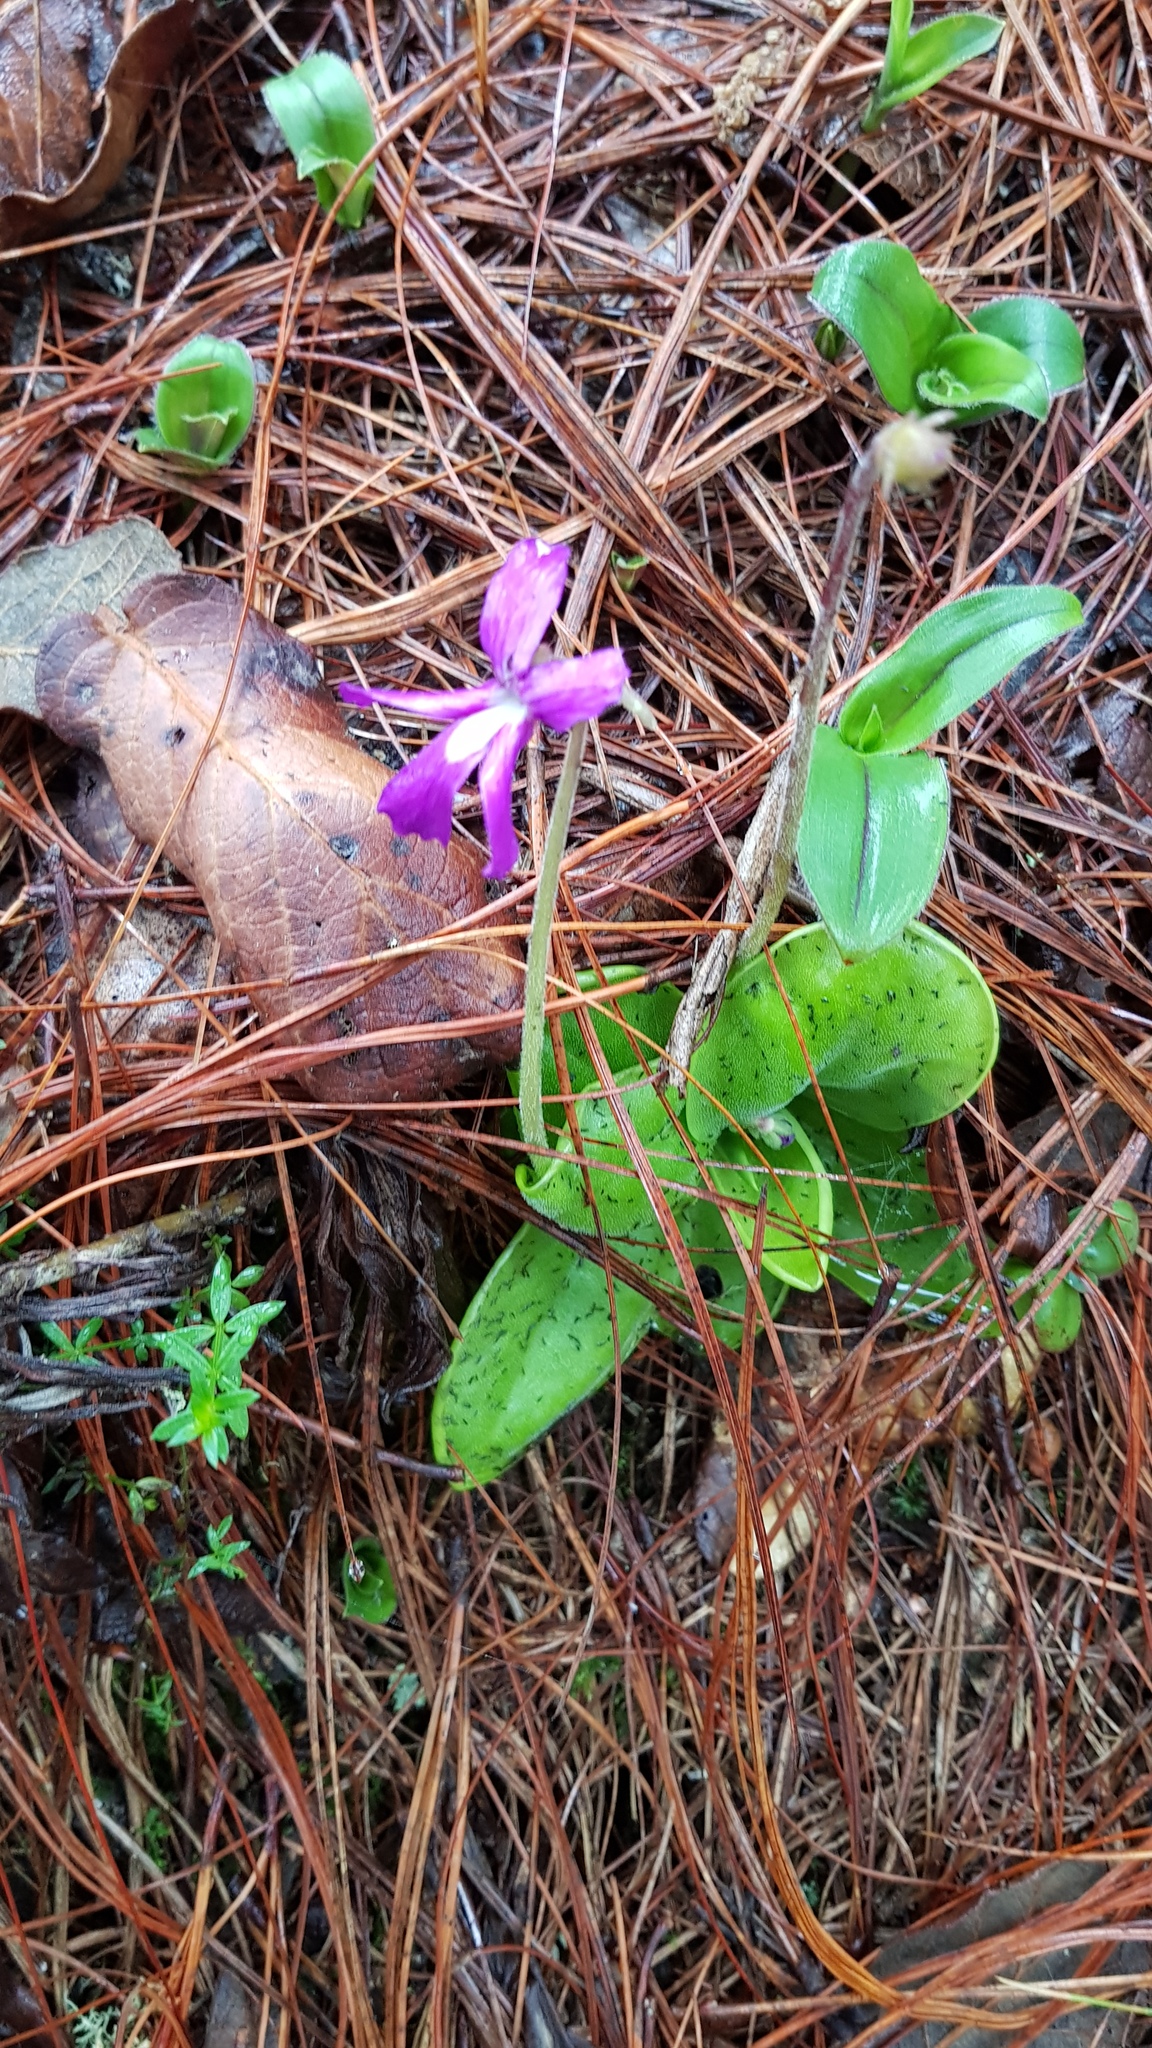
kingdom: Plantae
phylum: Tracheophyta
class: Magnoliopsida
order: Lamiales
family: Lentibulariaceae
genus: Pinguicula
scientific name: Pinguicula moranensis
